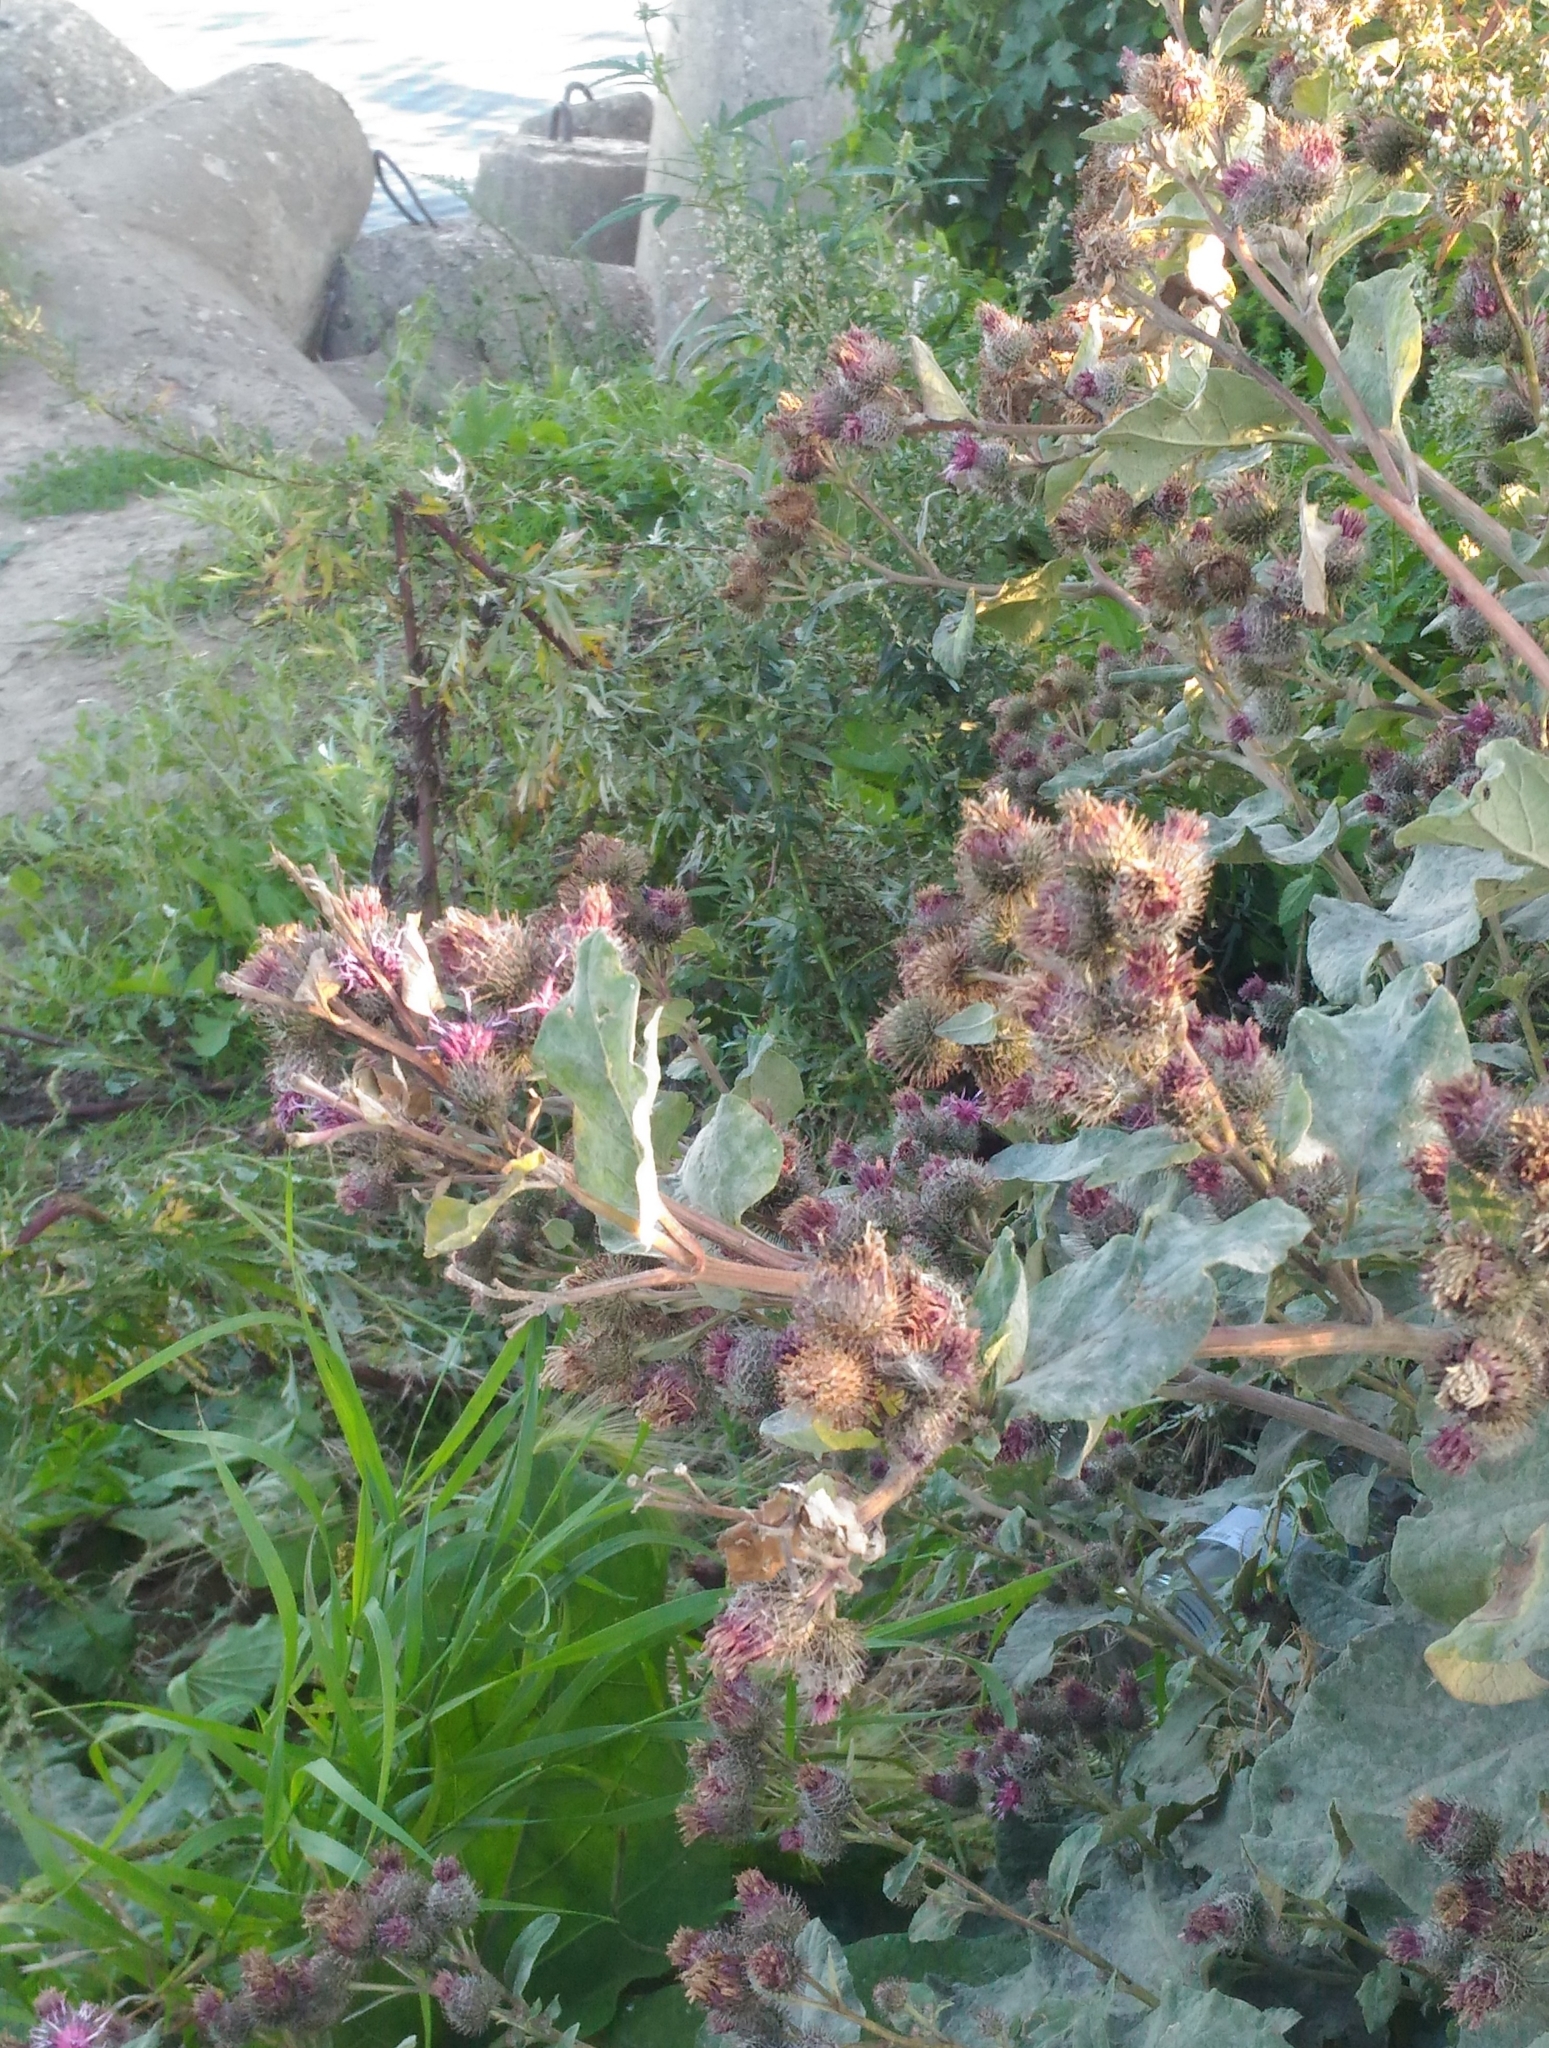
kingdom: Plantae
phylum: Tracheophyta
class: Magnoliopsida
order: Asterales
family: Asteraceae
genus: Arctium
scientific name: Arctium tomentosum
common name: Woolly burdock
